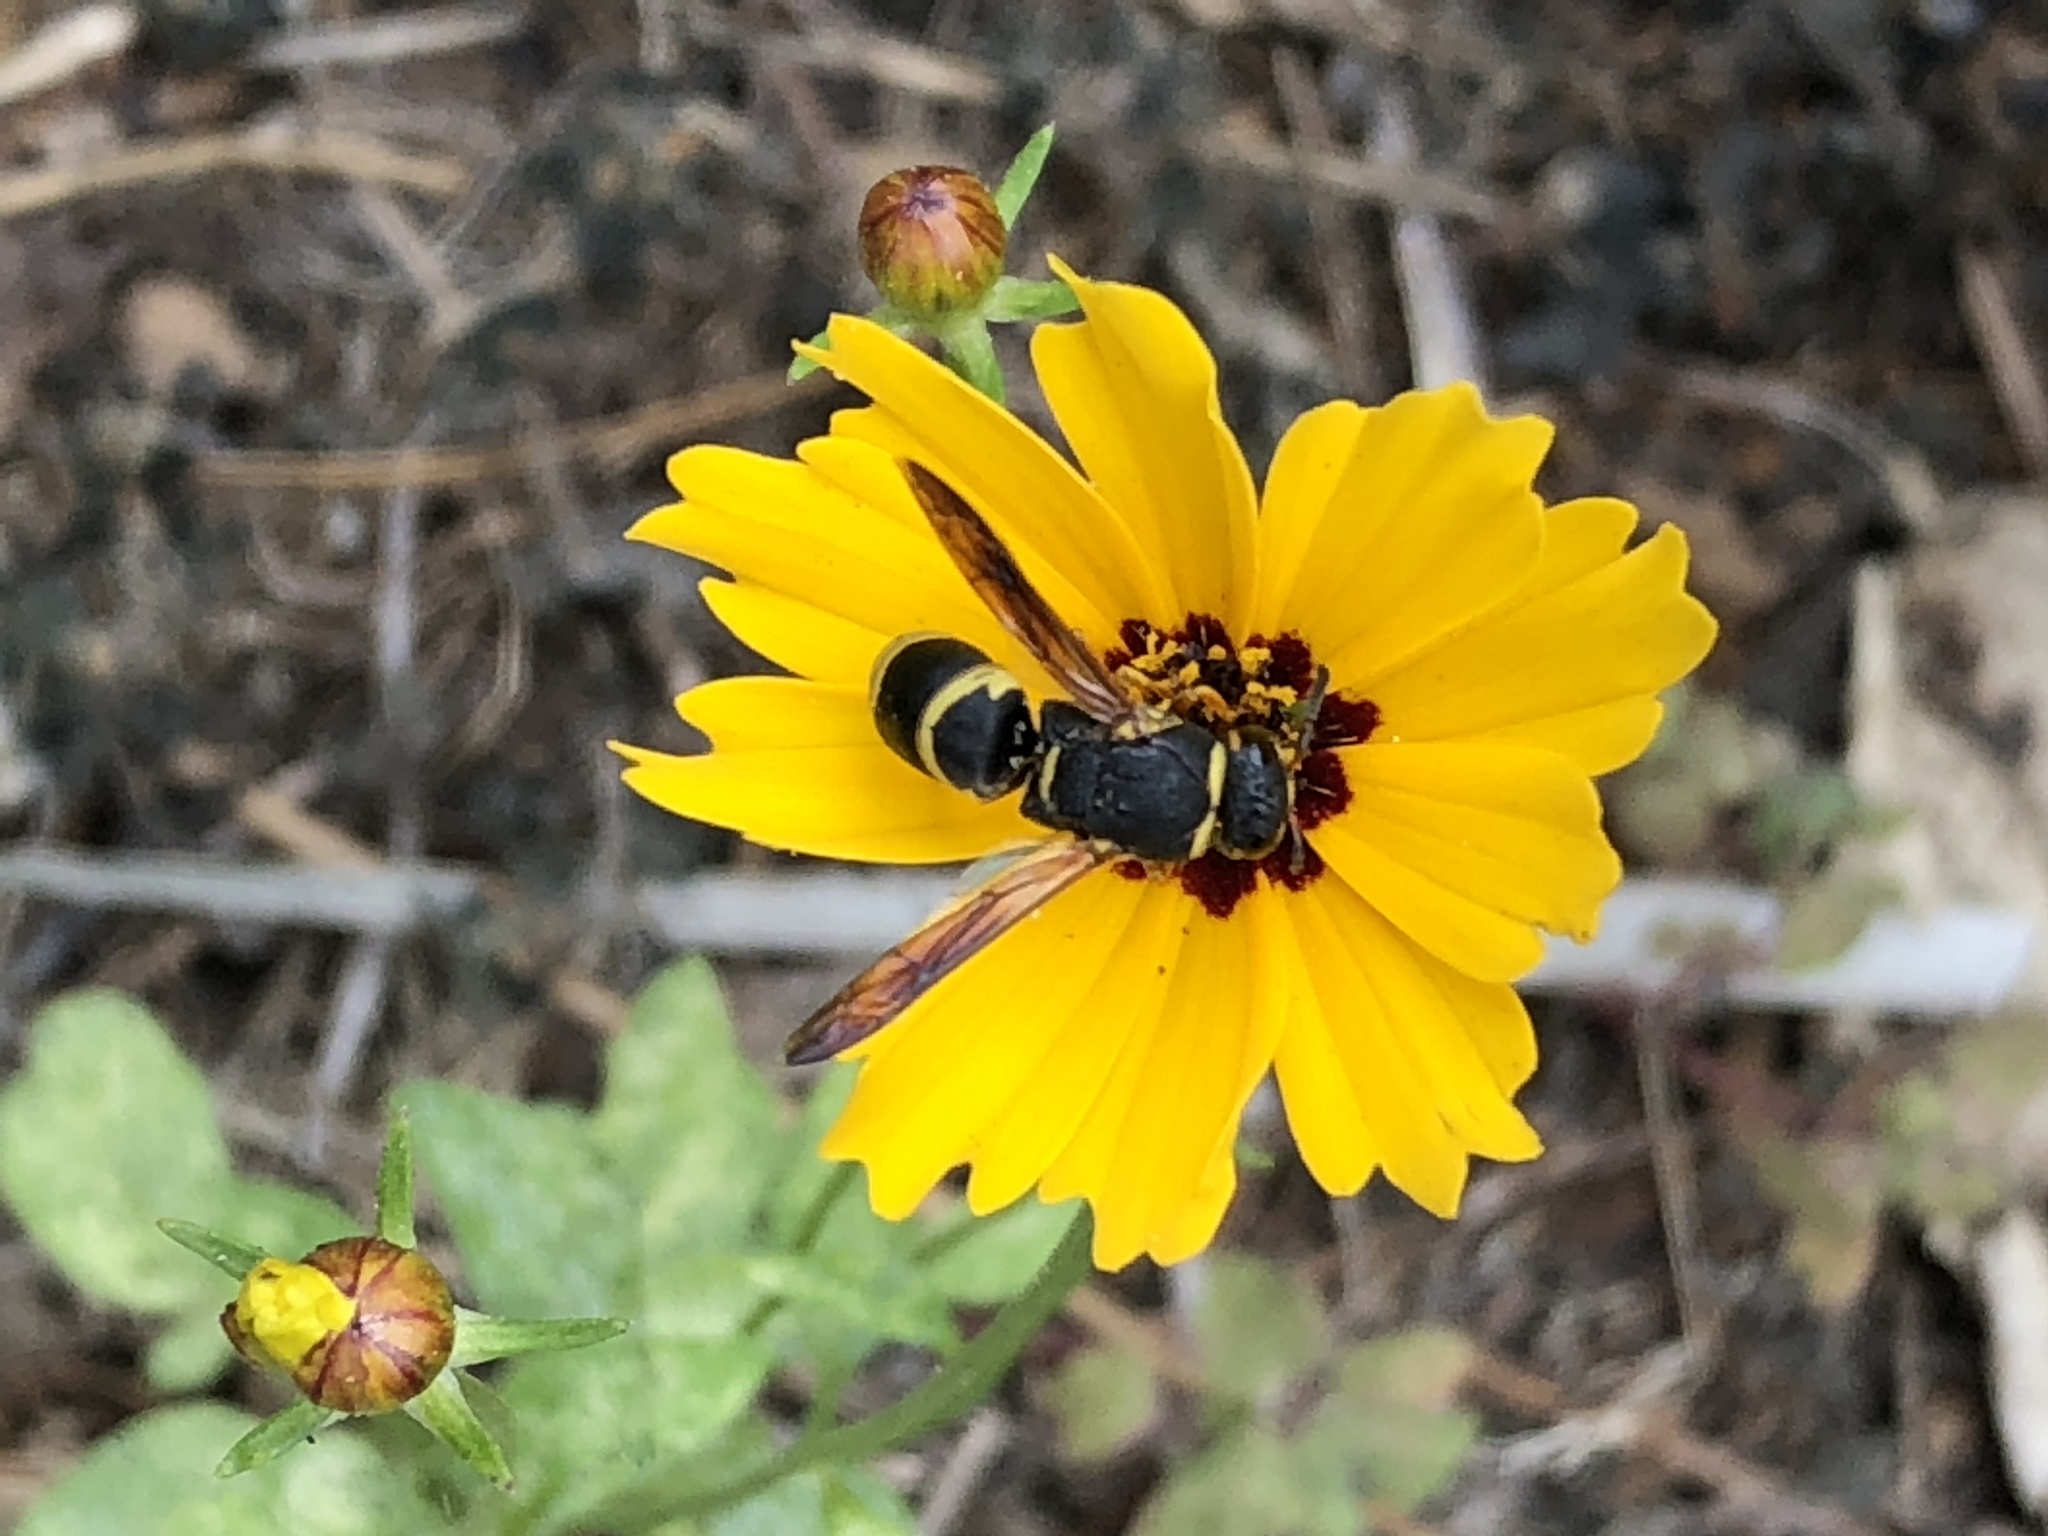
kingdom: Animalia
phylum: Arthropoda
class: Insecta
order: Hymenoptera
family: Eumenidae
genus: Euodynerus
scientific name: Euodynerus hidalgo
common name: Wasp
